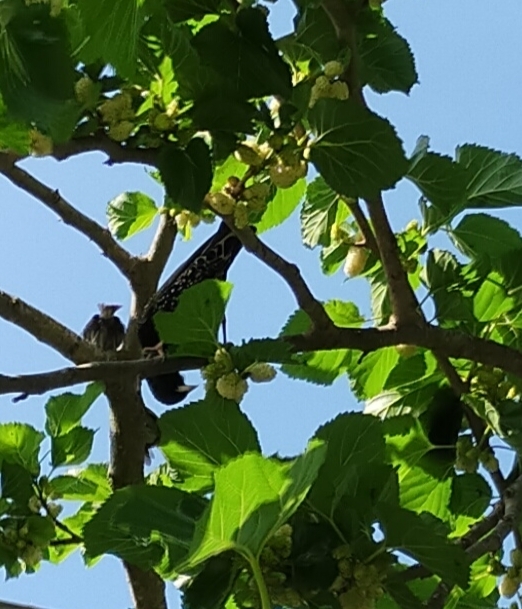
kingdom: Animalia
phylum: Chordata
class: Aves
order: Passeriformes
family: Sturnidae
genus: Sturnus
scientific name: Sturnus vulgaris
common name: Common starling
